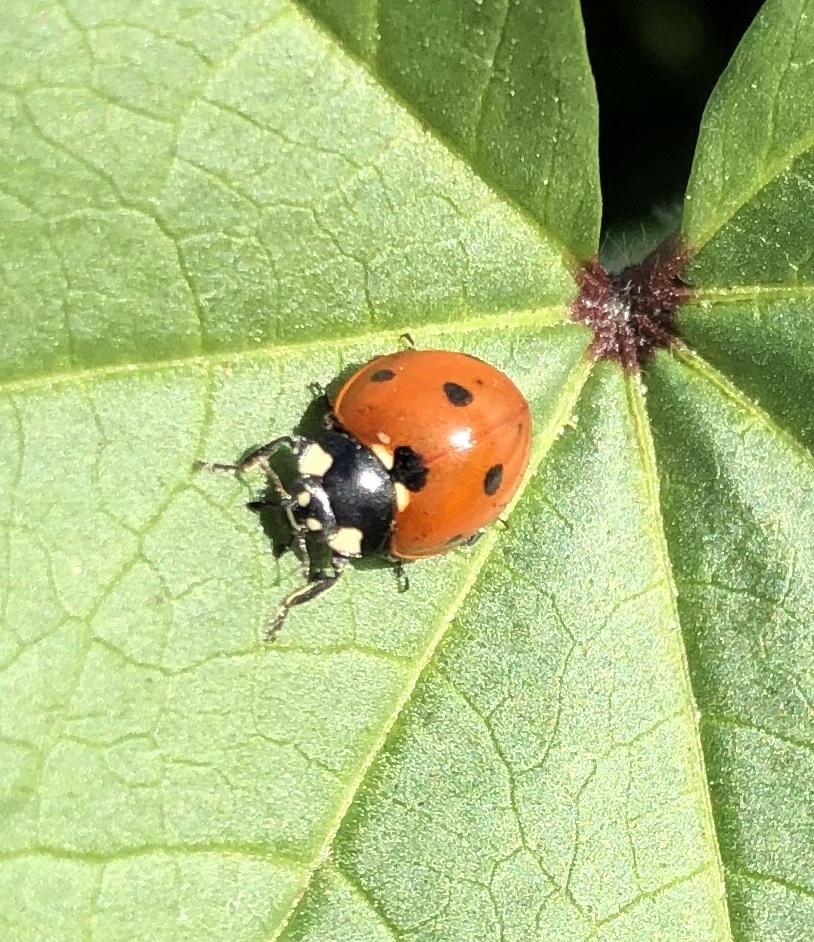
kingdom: Animalia
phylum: Arthropoda
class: Insecta
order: Coleoptera
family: Coccinellidae
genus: Coccinella
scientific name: Coccinella septempunctata
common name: Sevenspotted lady beetle
